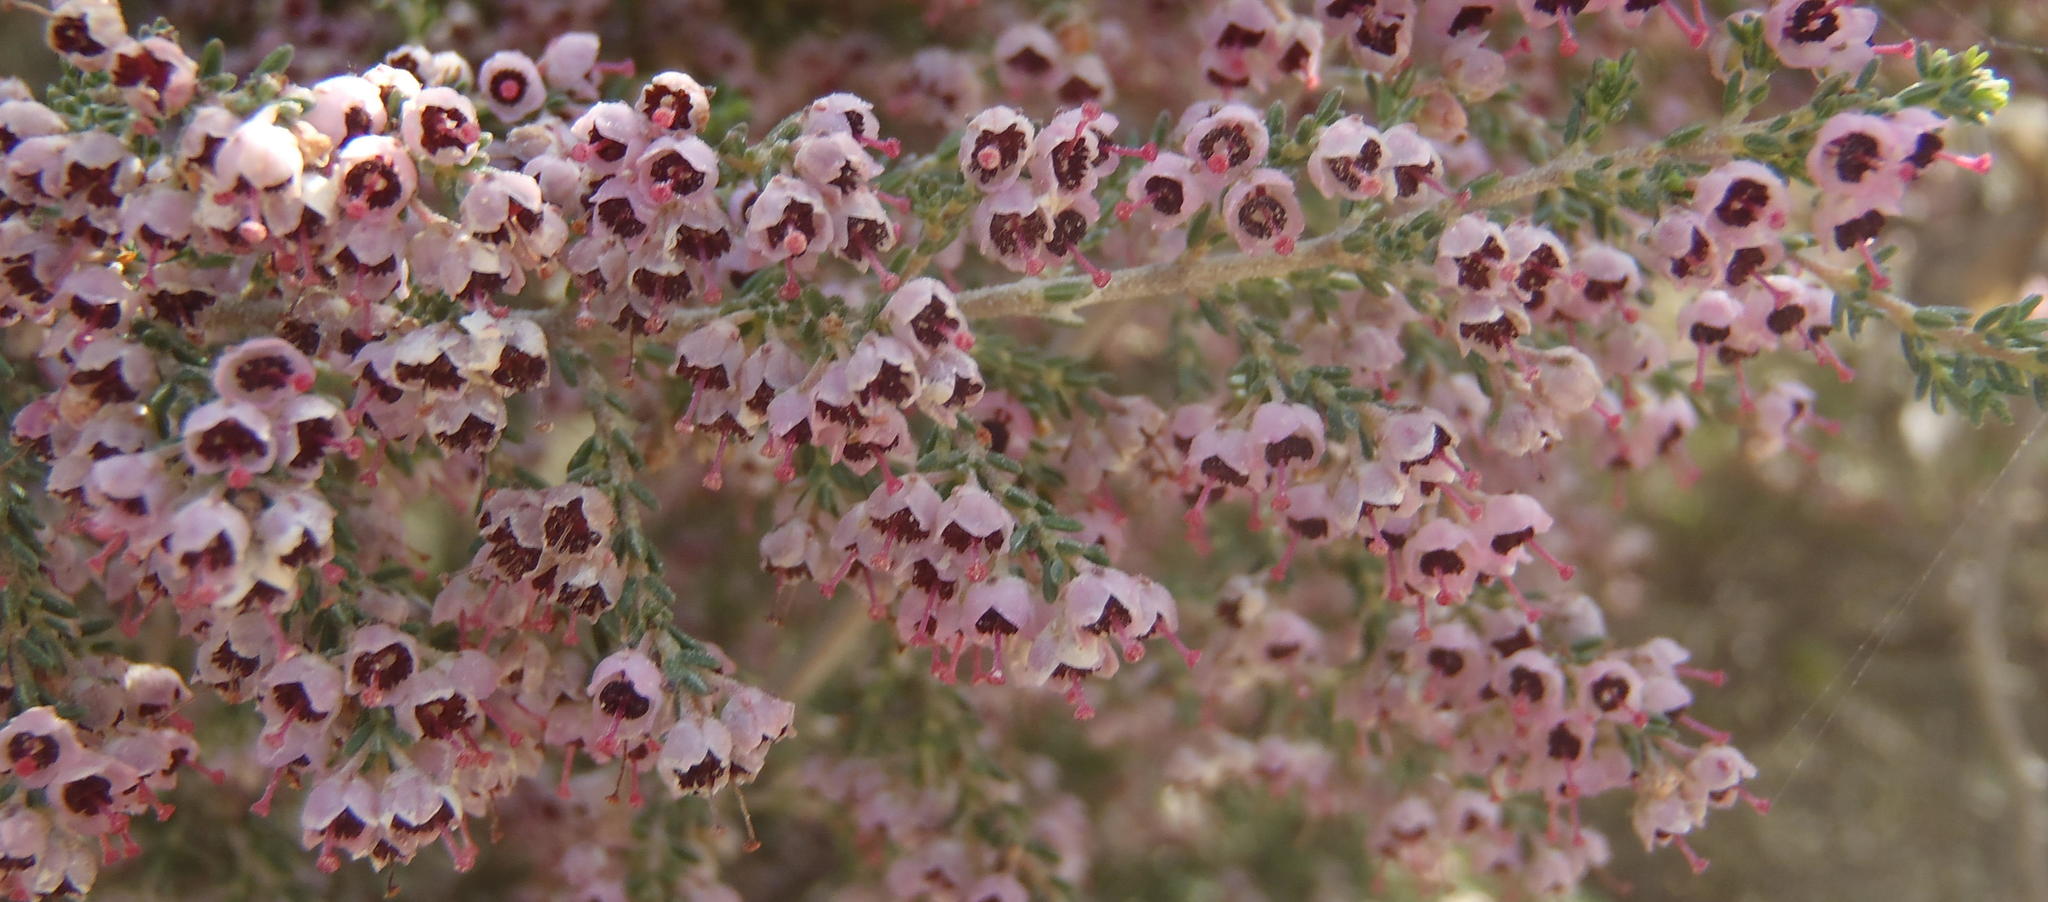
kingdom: Plantae
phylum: Tracheophyta
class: Magnoliopsida
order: Ericales
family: Ericaceae
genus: Erica
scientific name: Erica sparsa
